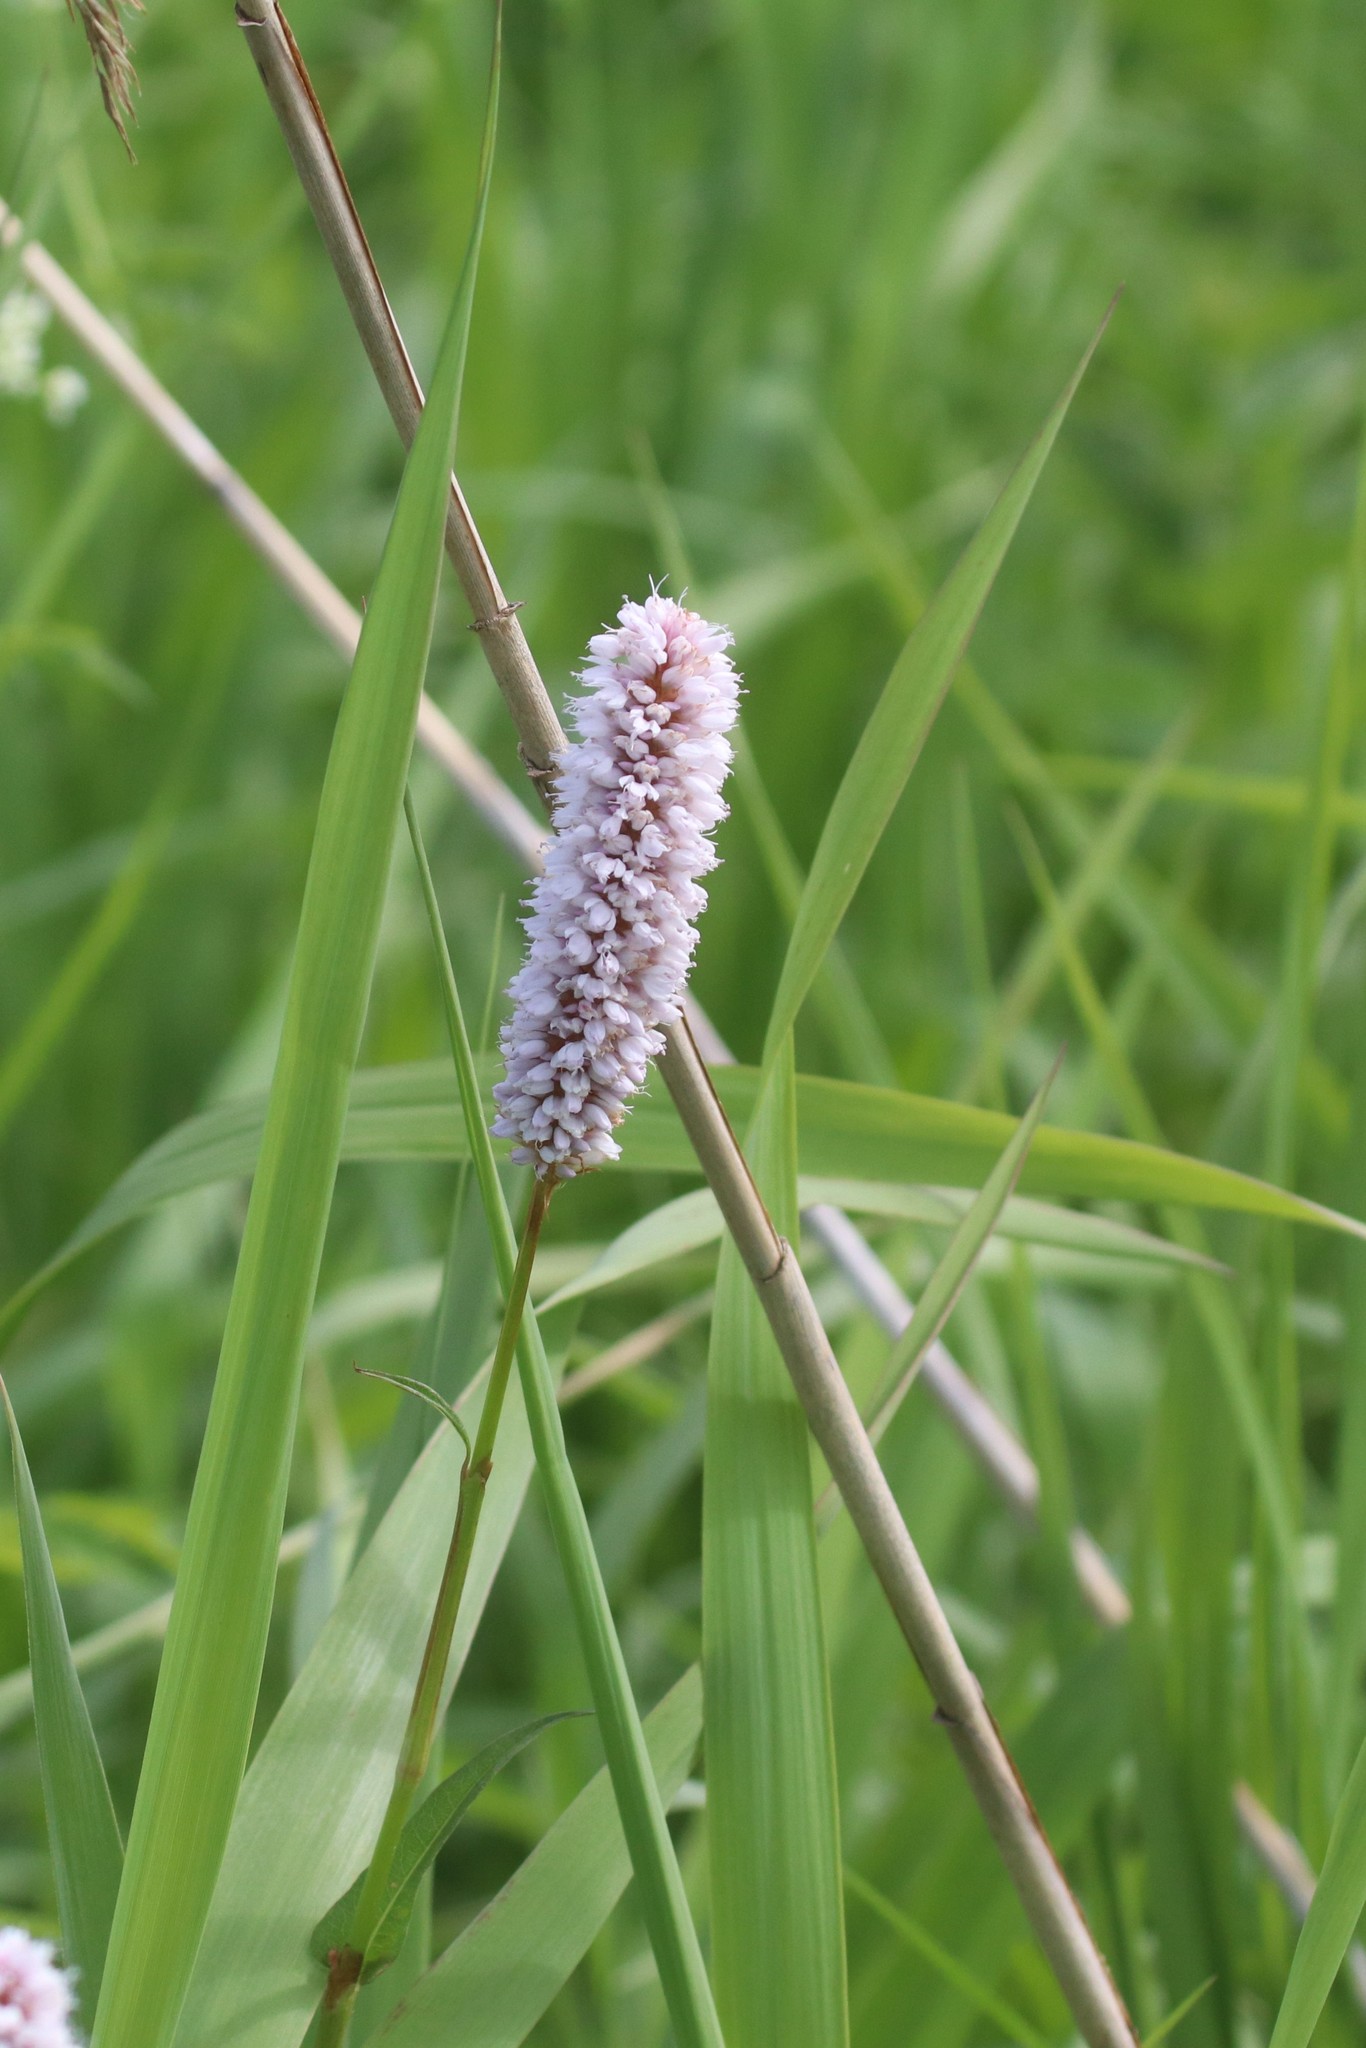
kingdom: Plantae
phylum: Tracheophyta
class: Magnoliopsida
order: Caryophyllales
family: Polygonaceae
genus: Bistorta
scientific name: Bistorta officinalis
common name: Common bistort
